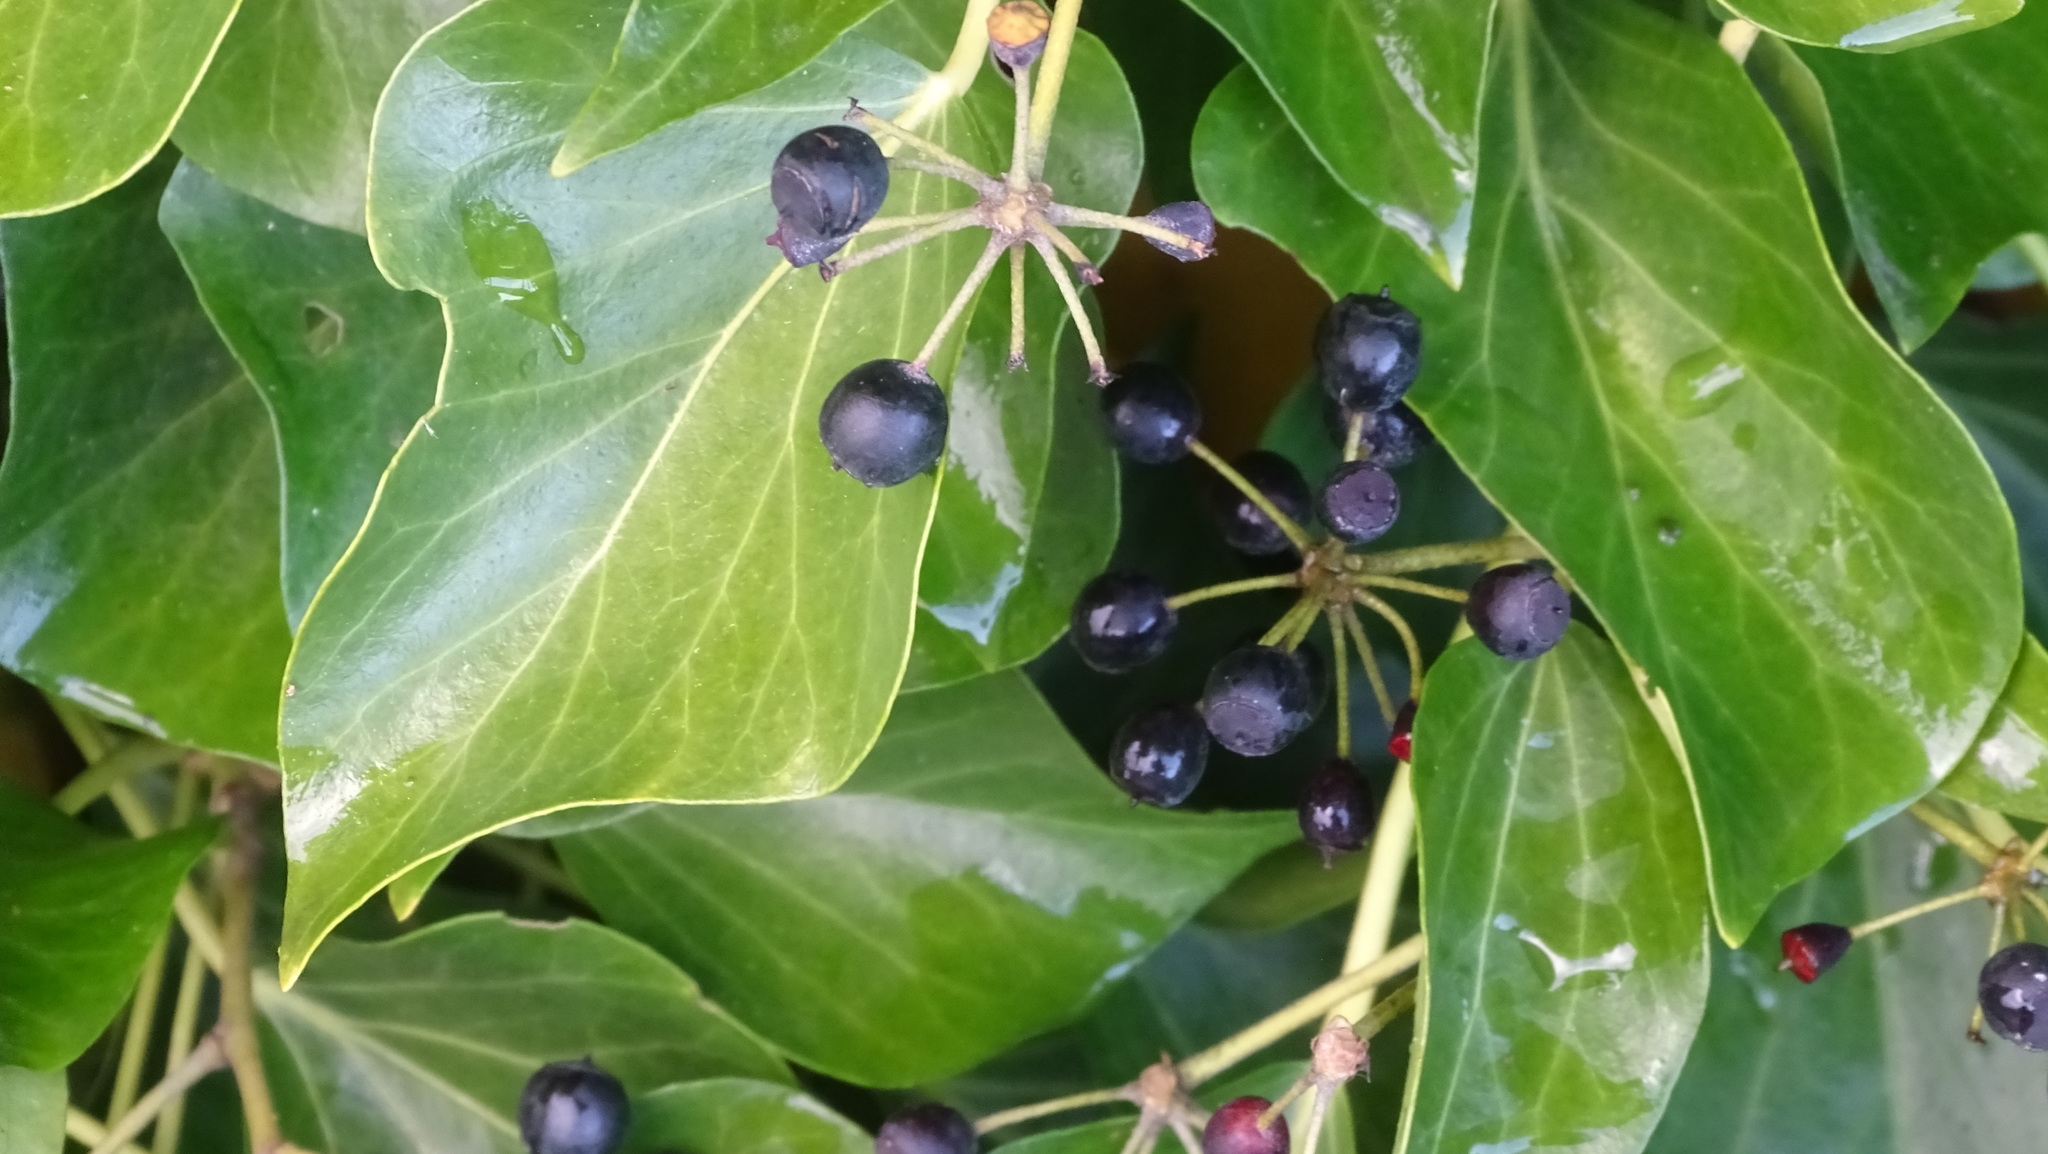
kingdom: Plantae
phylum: Tracheophyta
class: Magnoliopsida
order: Apiales
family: Araliaceae
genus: Hedera
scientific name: Hedera helix
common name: Ivy
